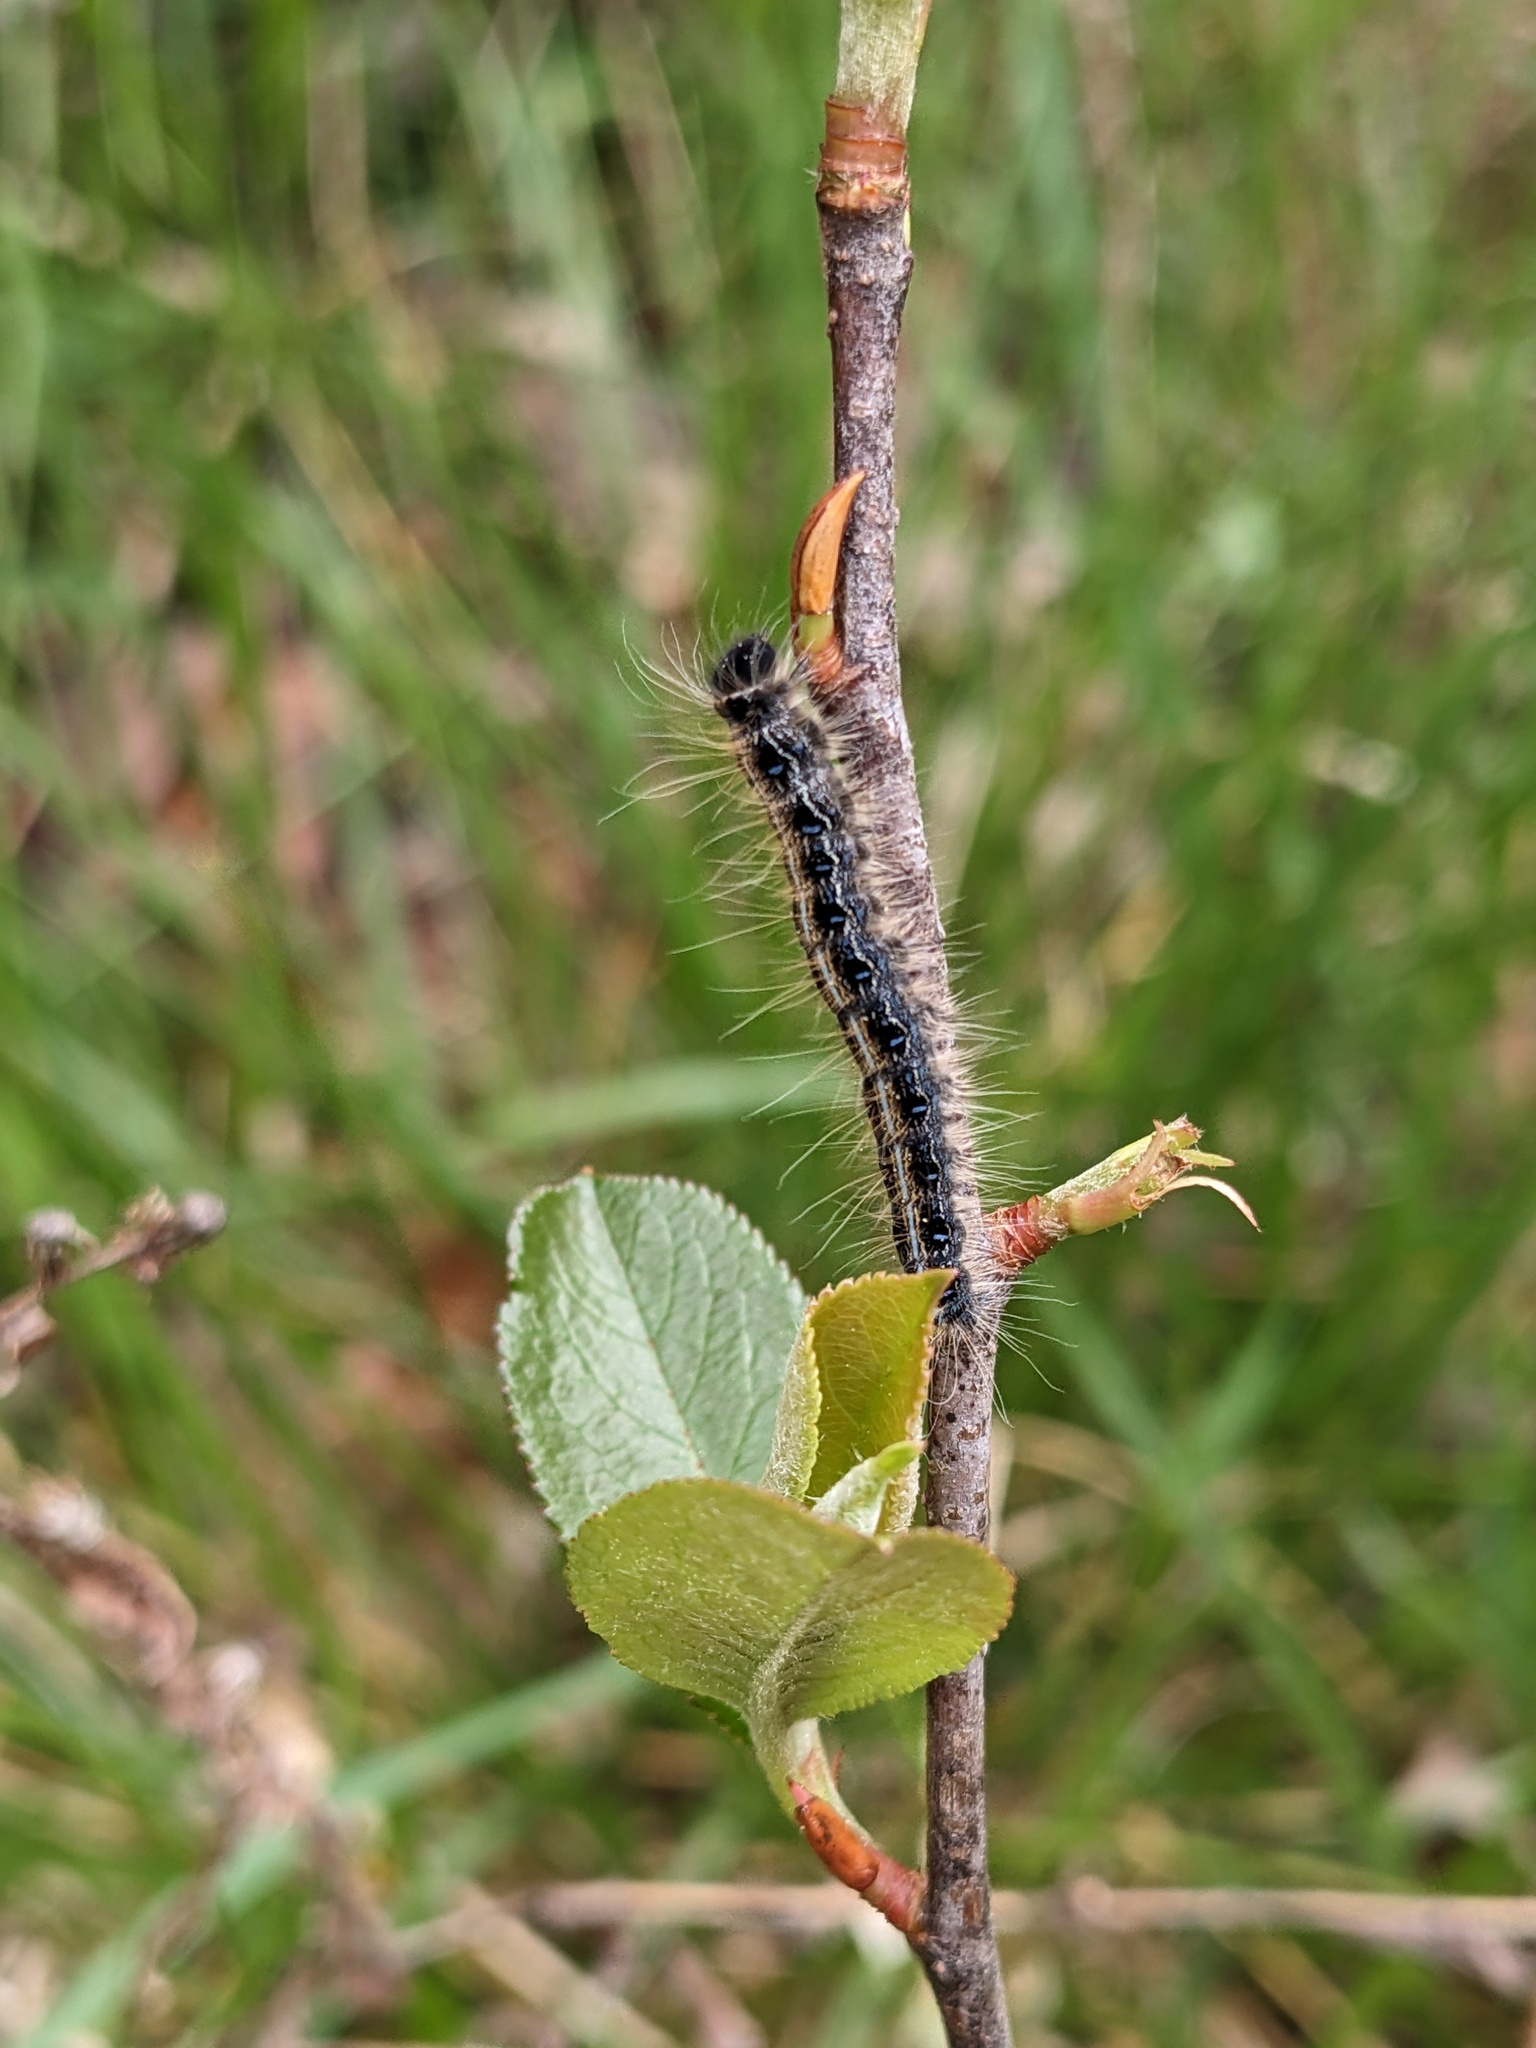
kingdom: Animalia
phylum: Arthropoda
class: Insecta
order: Lepidoptera
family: Lasiocampidae
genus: Malacosoma
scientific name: Malacosoma americana
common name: Eastern tent caterpillar moth
